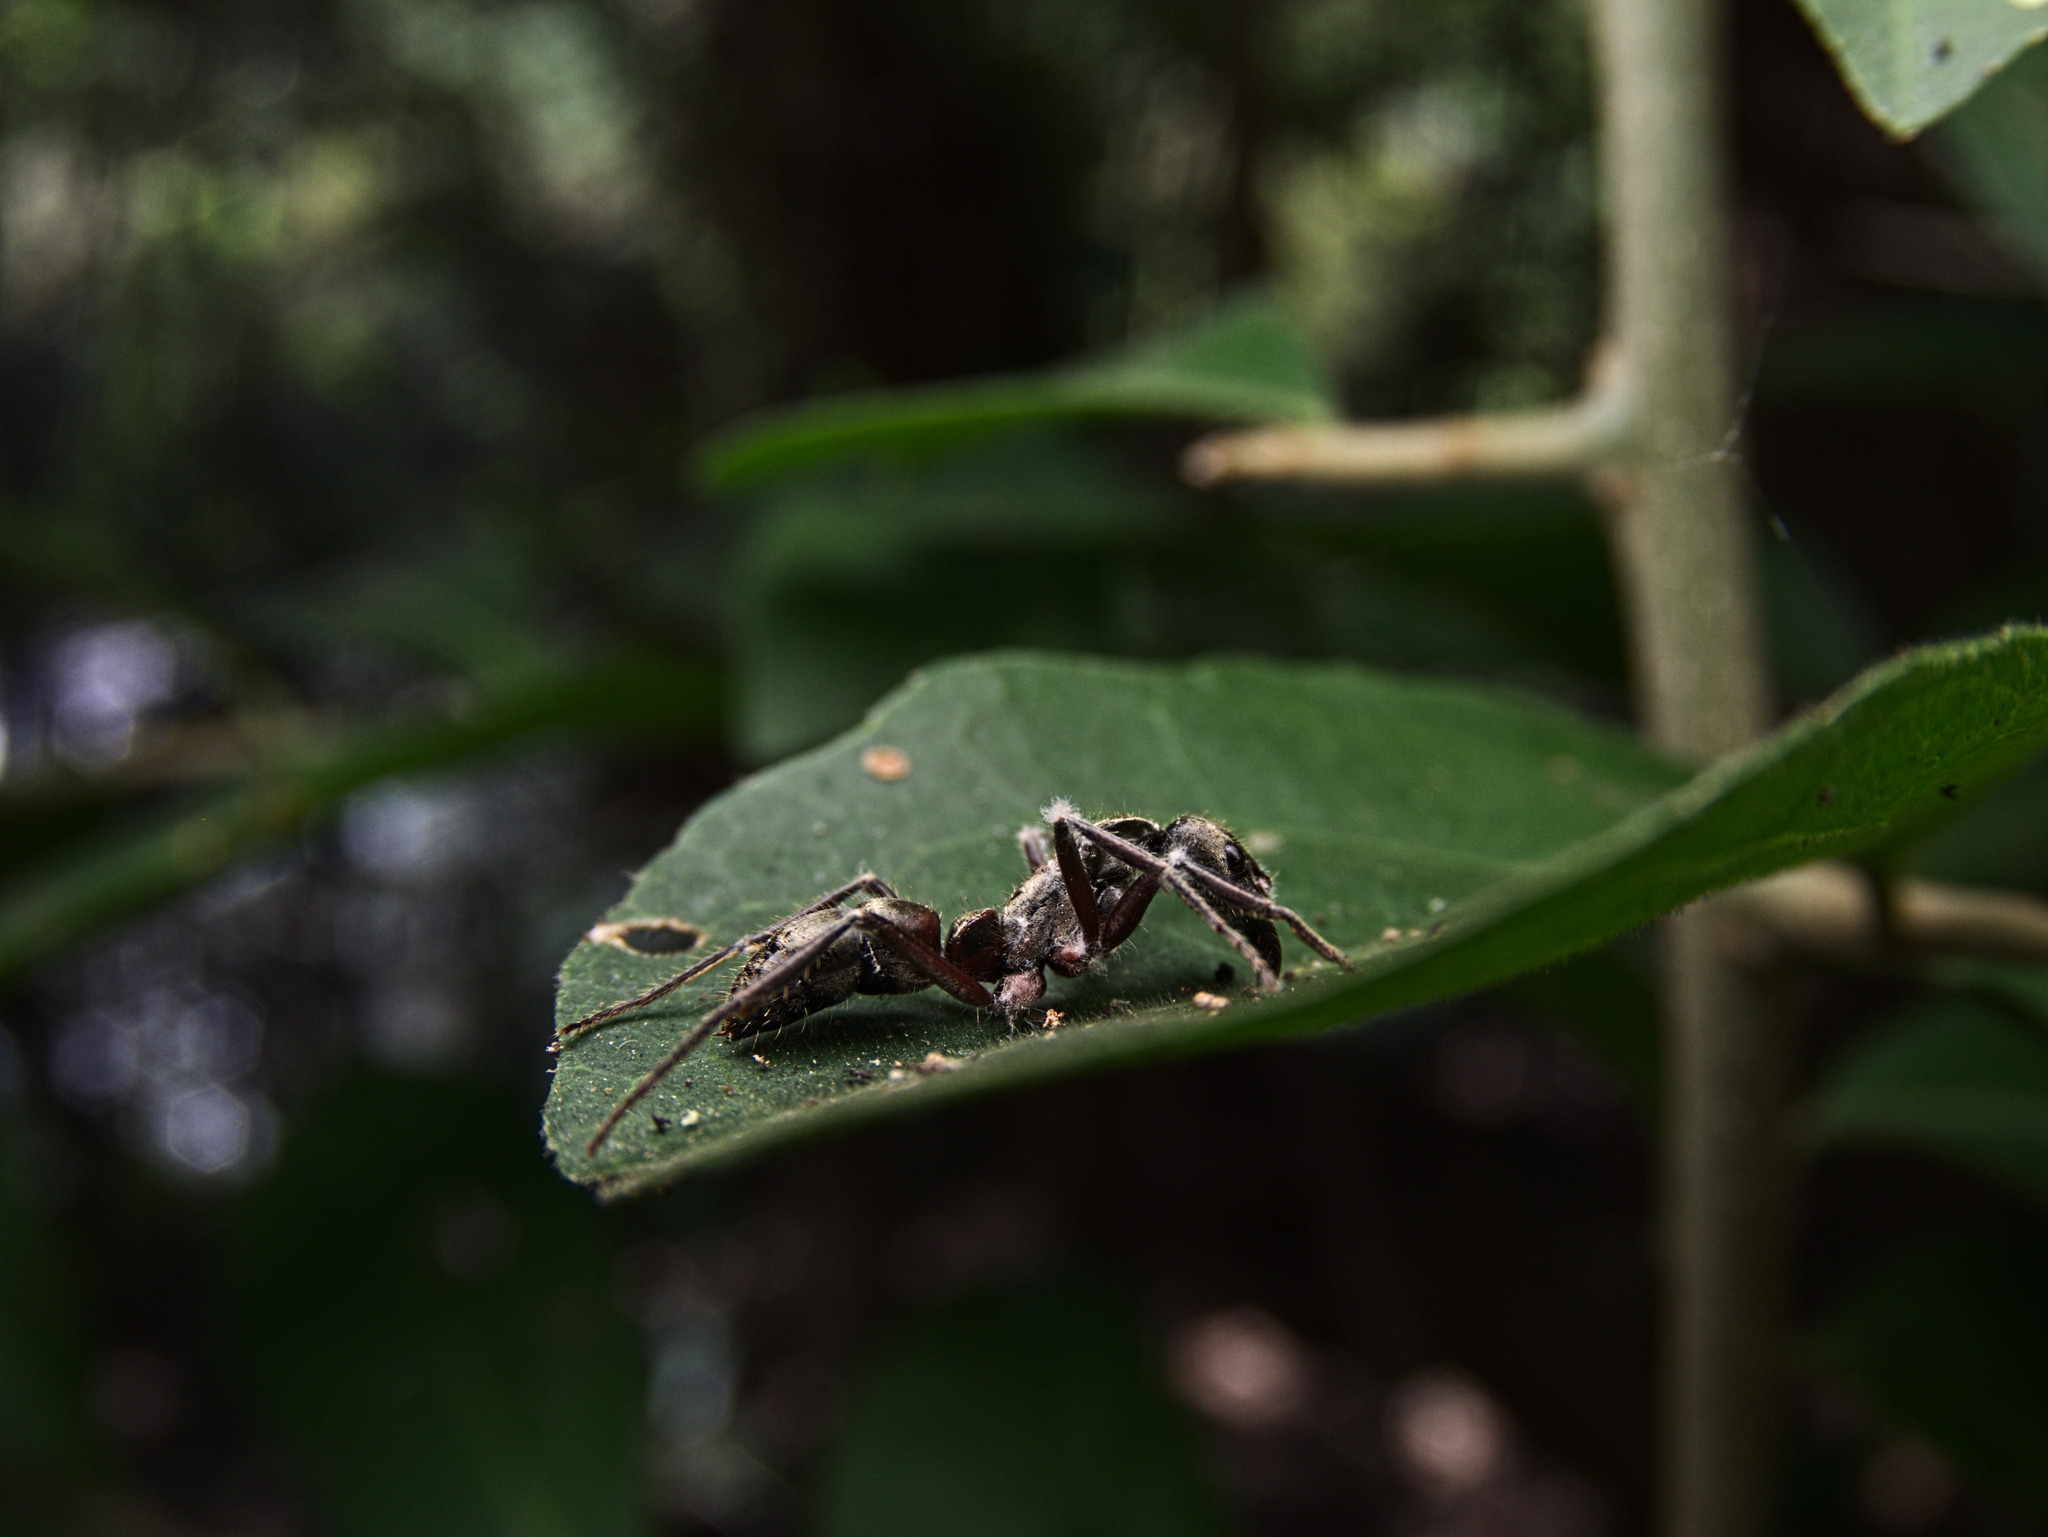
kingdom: Animalia
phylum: Arthropoda
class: Insecta
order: Hymenoptera
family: Formicidae
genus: Pachycondyla
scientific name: Pachycondyla villosa
